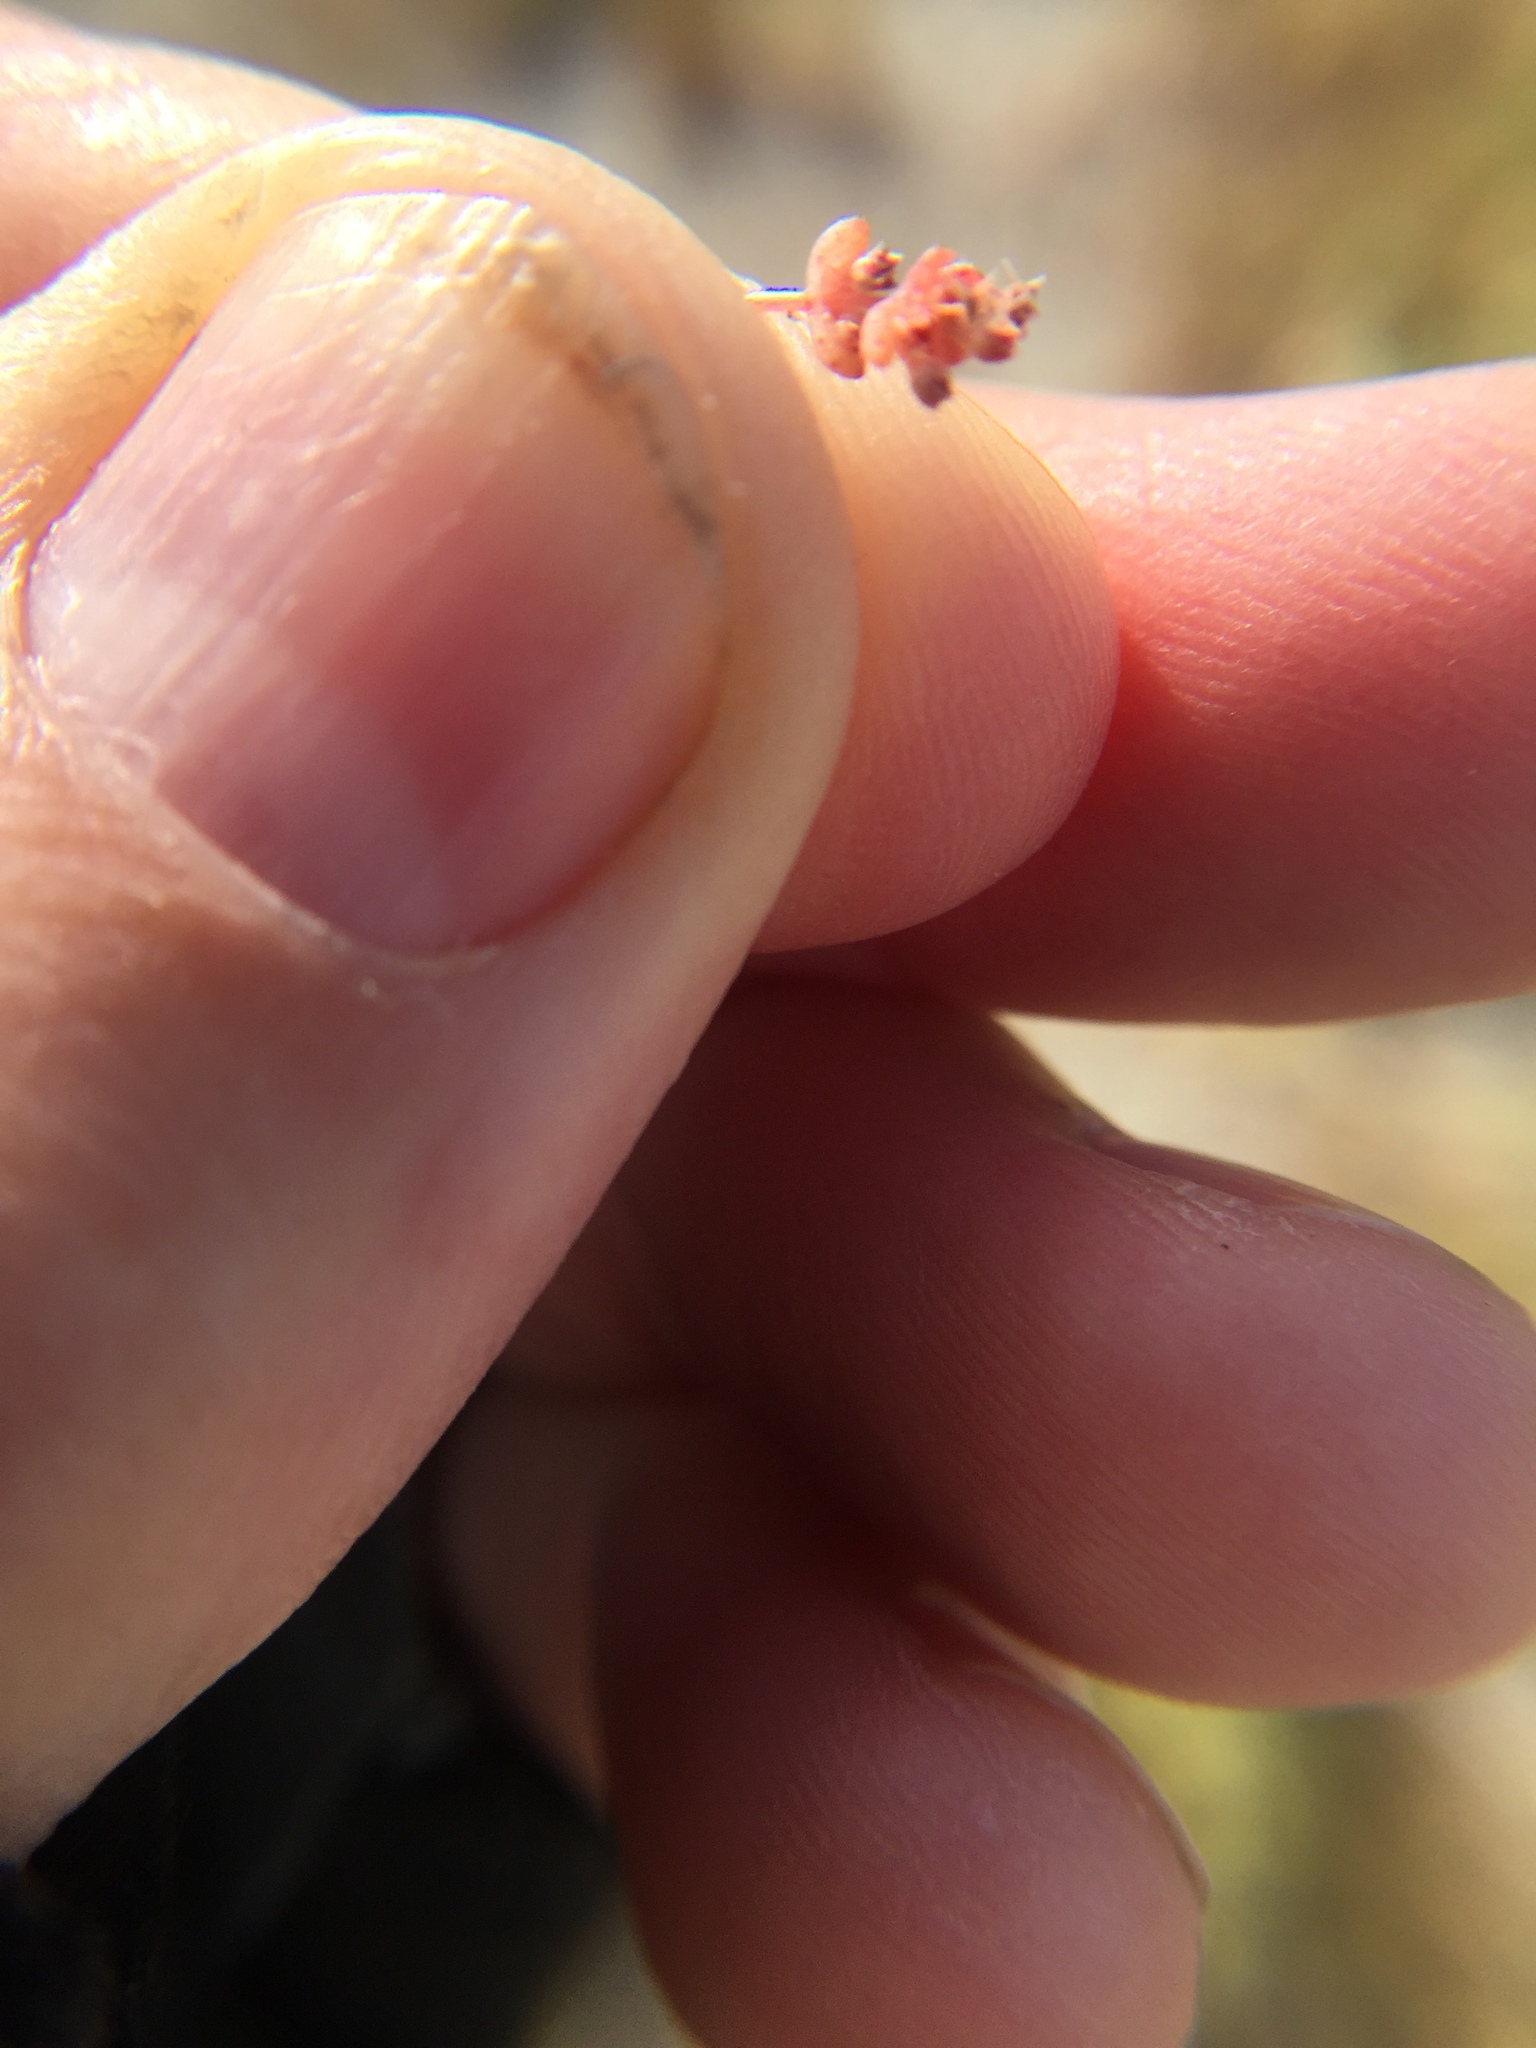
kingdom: Plantae
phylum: Tracheophyta
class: Magnoliopsida
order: Saxifragales
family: Crassulaceae
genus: Crassula
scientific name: Crassula connata
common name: Erect pygmyweed
